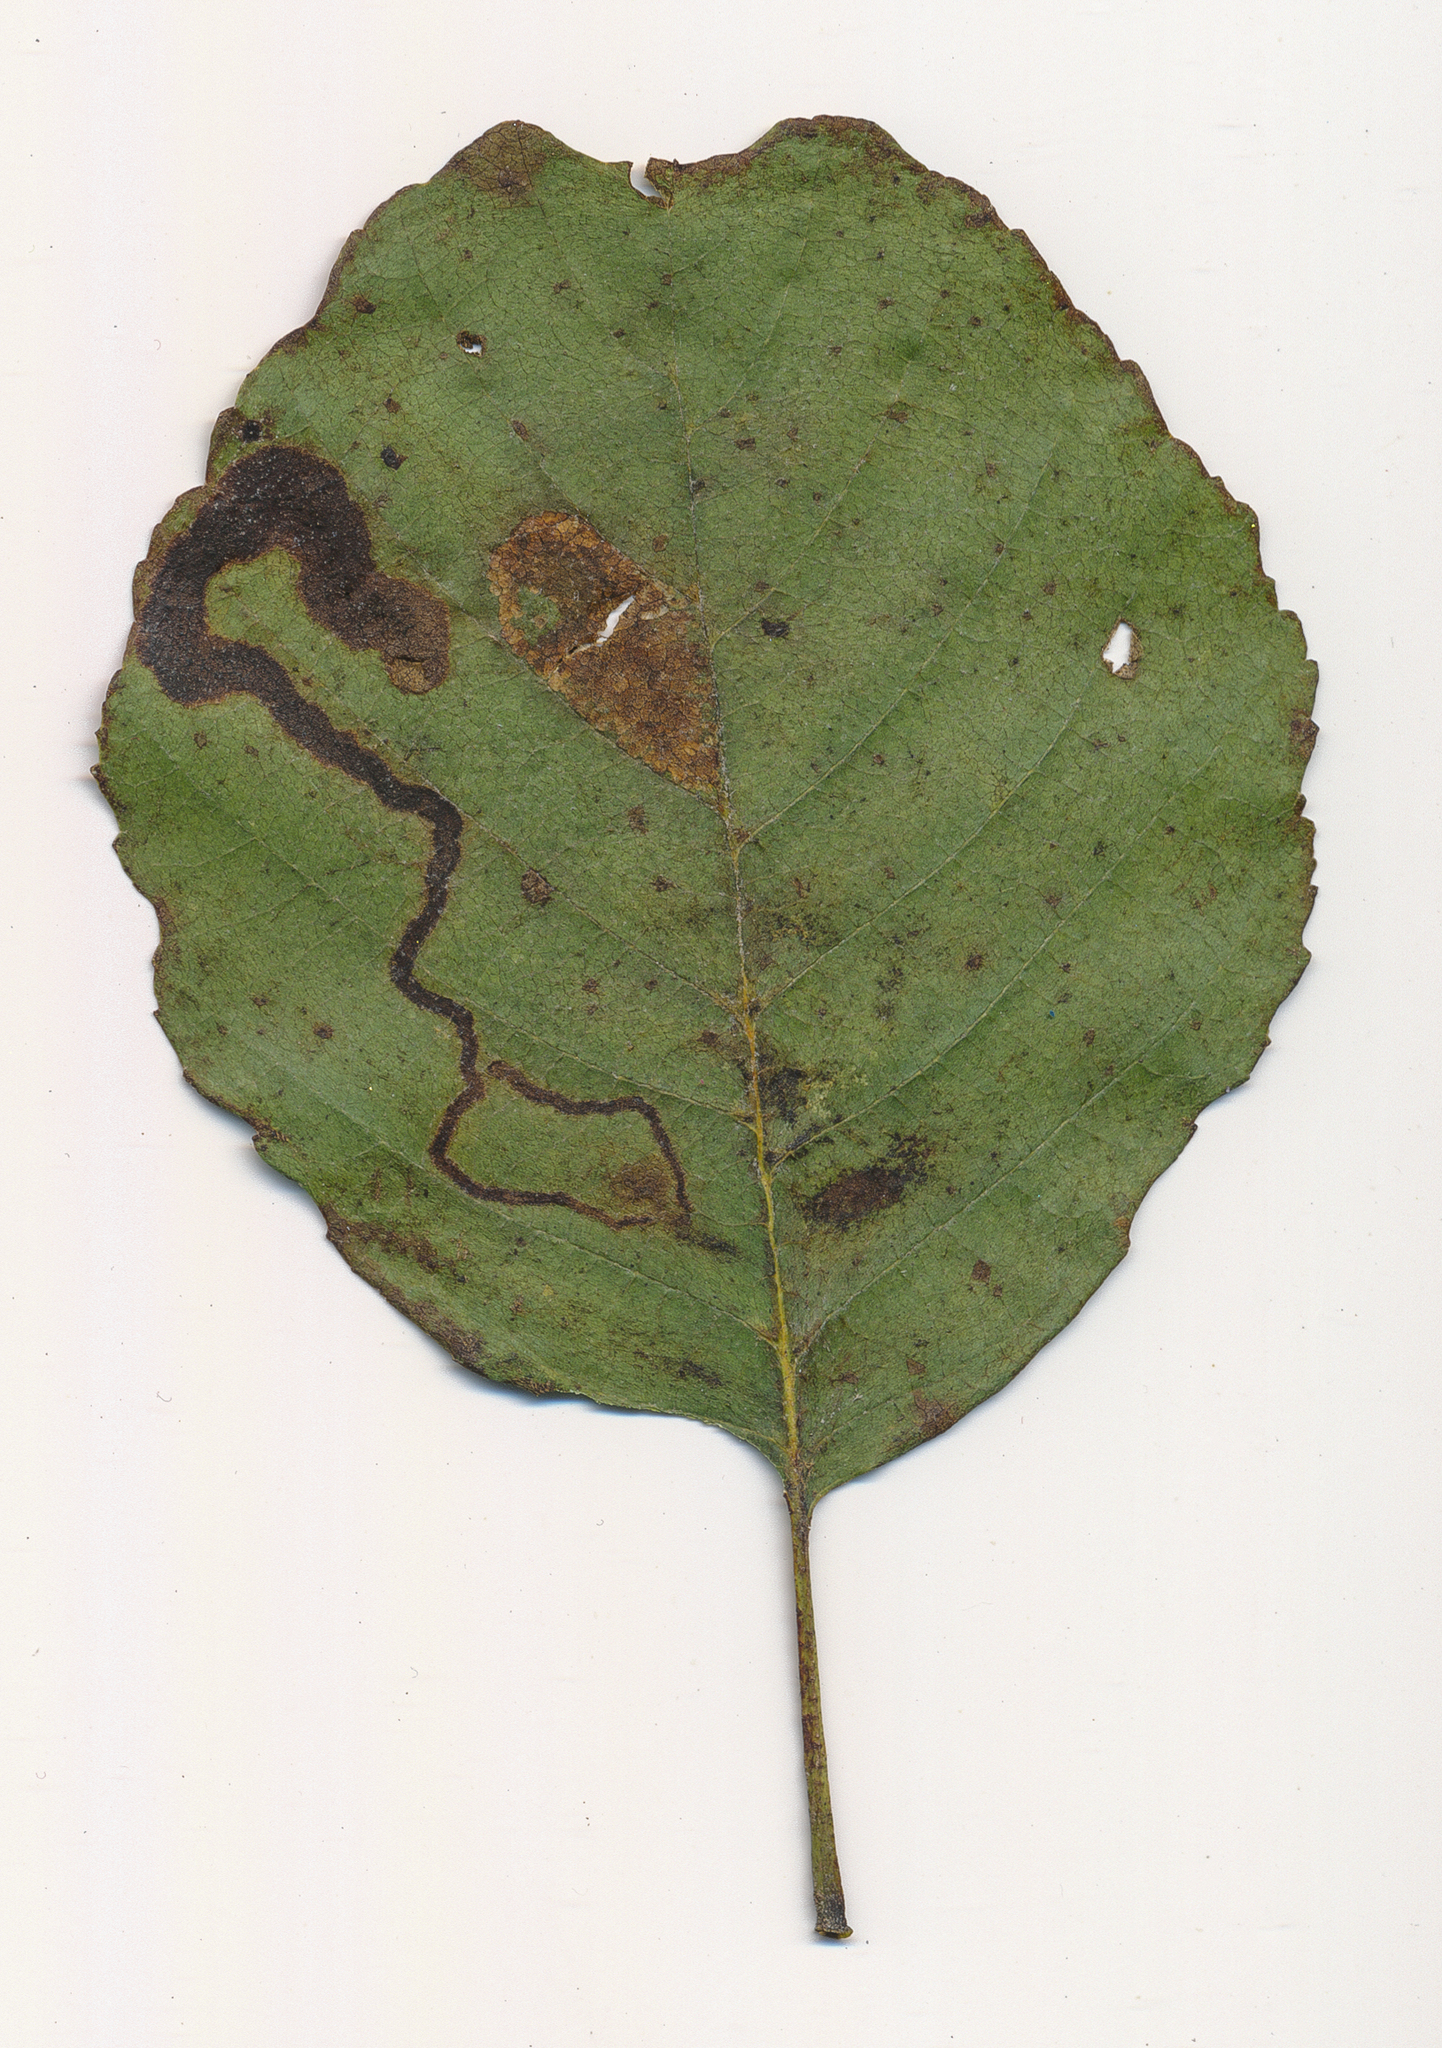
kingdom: Animalia
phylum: Arthropoda
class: Insecta
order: Diptera
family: Agromyzidae
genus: Agromyza
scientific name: Agromyza alnivora
